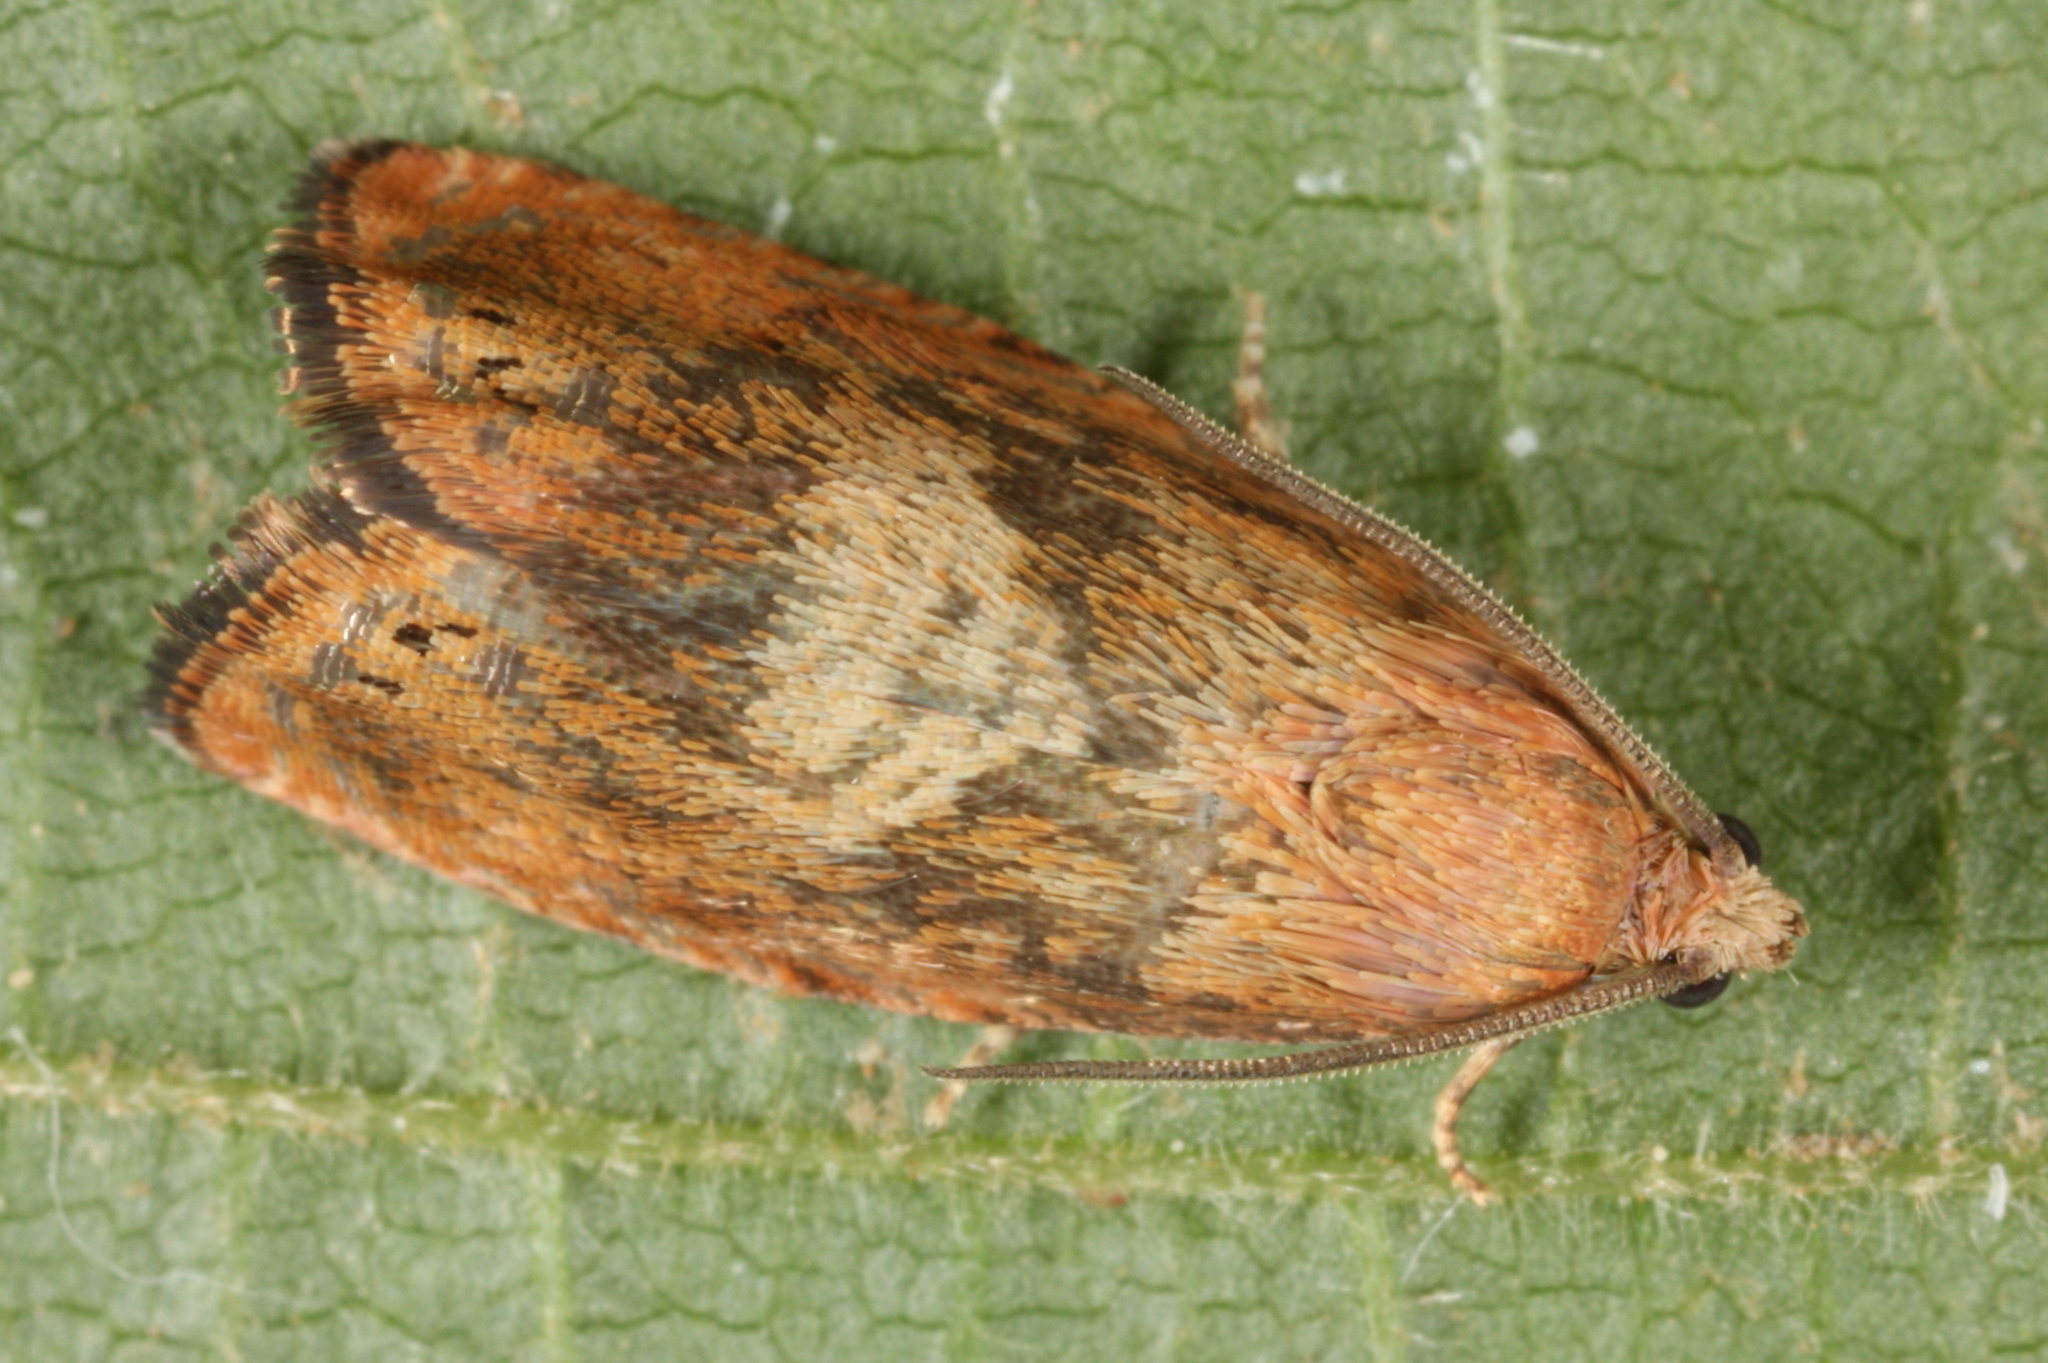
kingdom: Animalia
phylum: Arthropoda
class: Insecta
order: Lepidoptera
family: Tortricidae
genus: Cydia
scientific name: Cydia amplana
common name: Vagrant piercer
